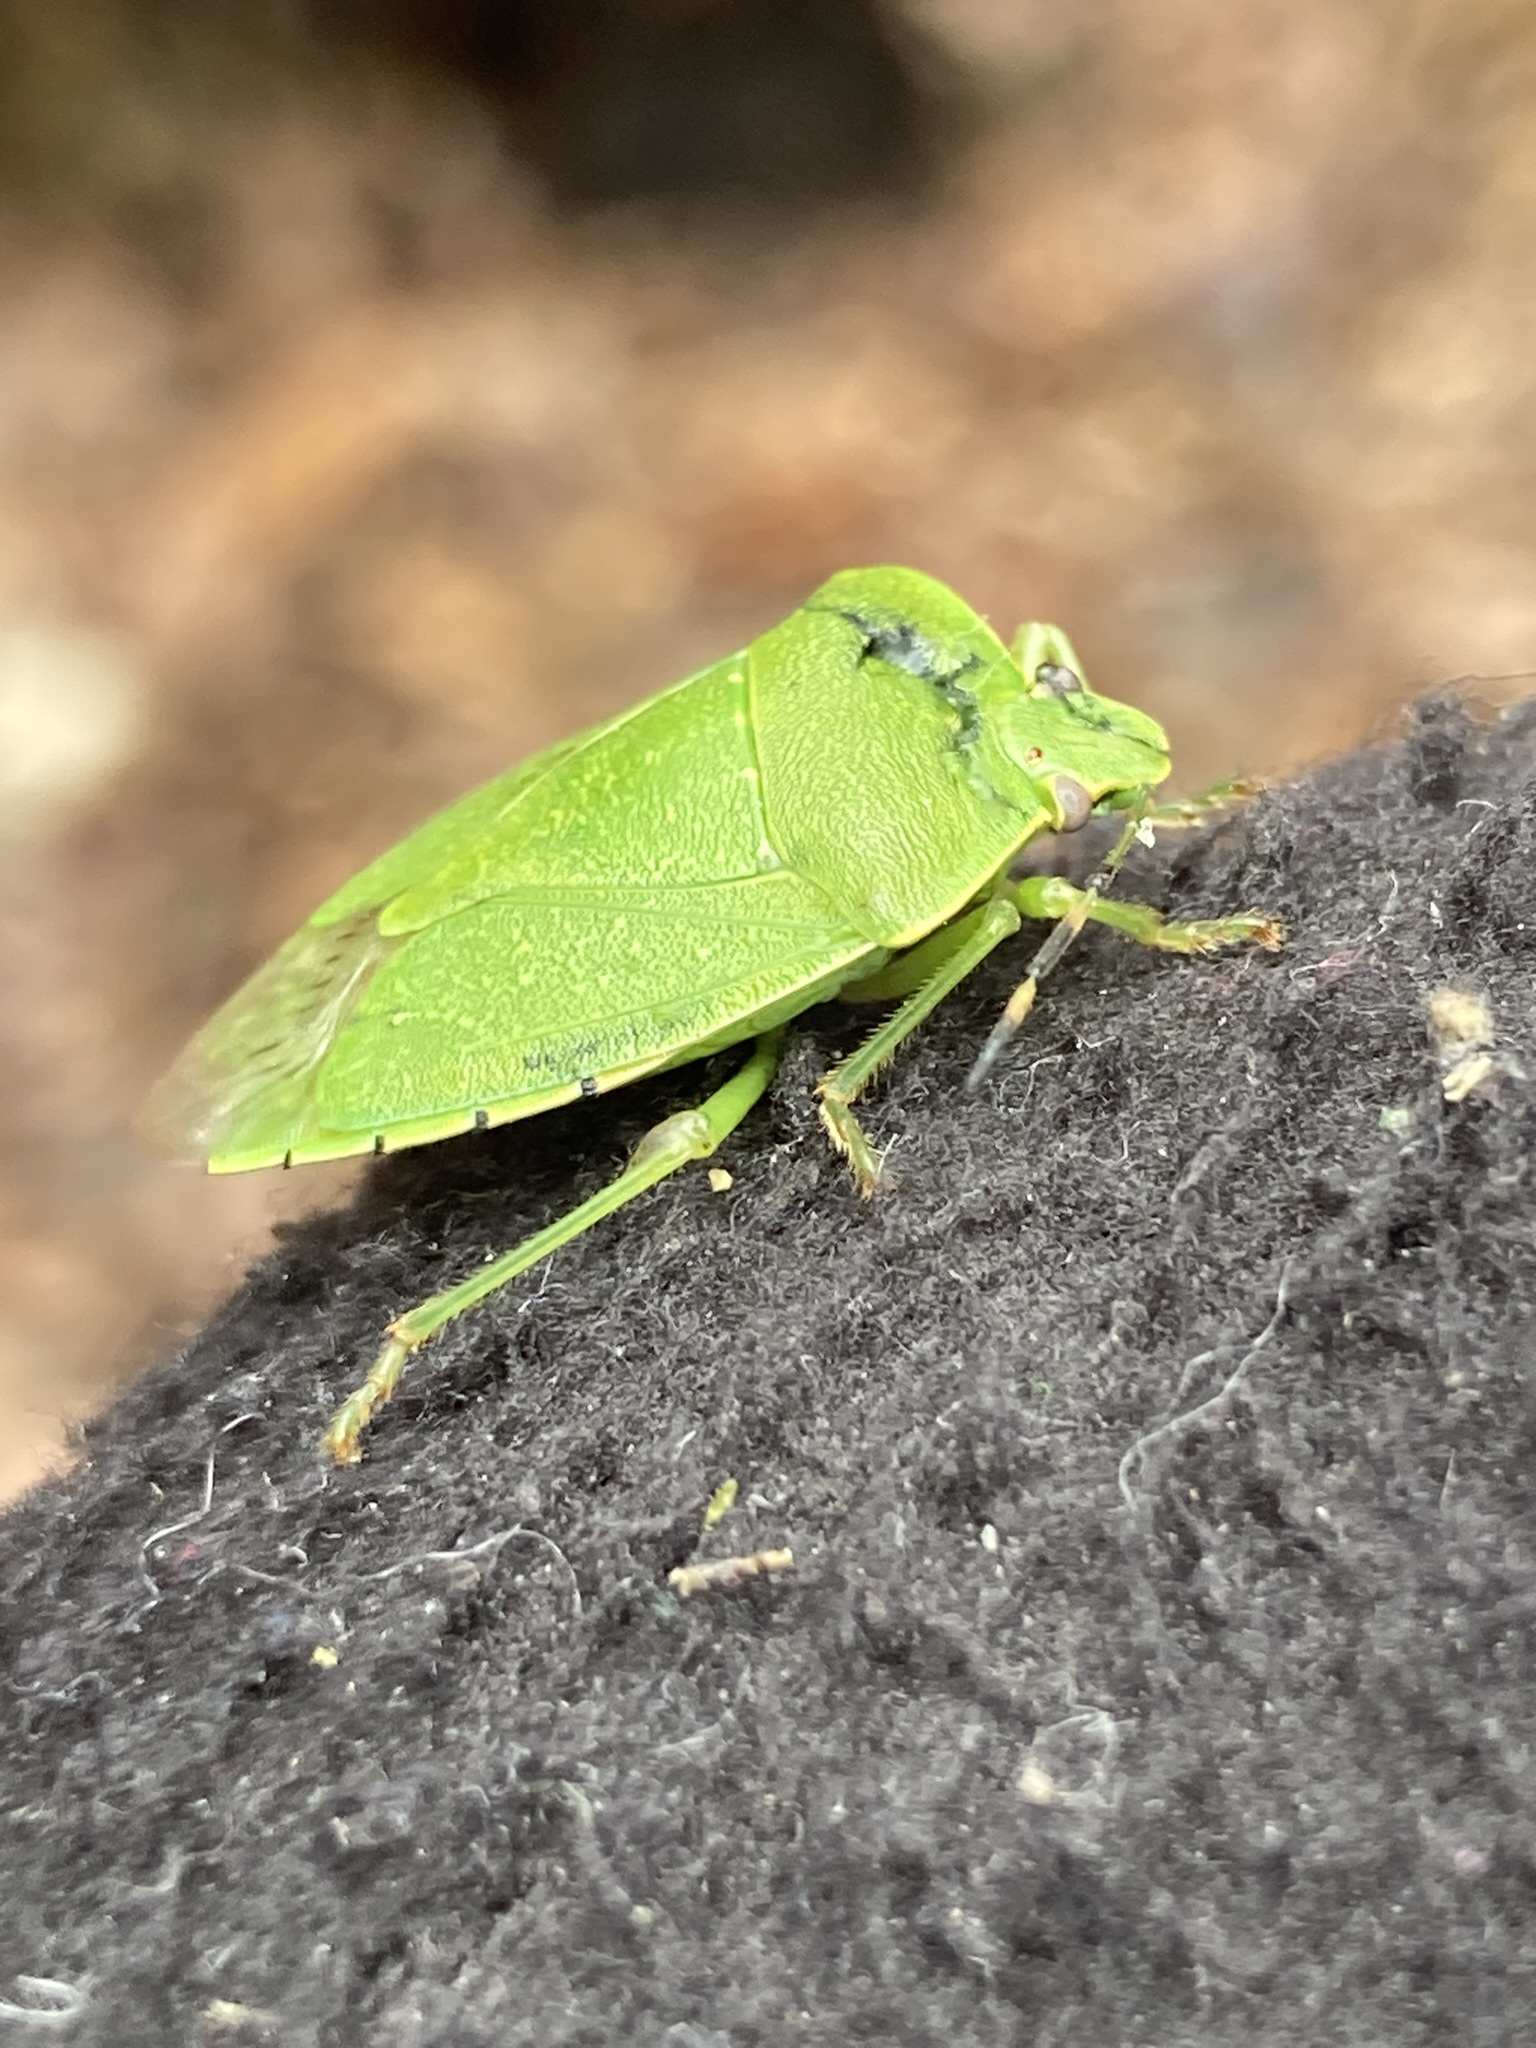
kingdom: Animalia
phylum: Arthropoda
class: Insecta
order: Hemiptera
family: Pentatomidae
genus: Chinavia
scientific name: Chinavia hilaris
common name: Green stink bug
